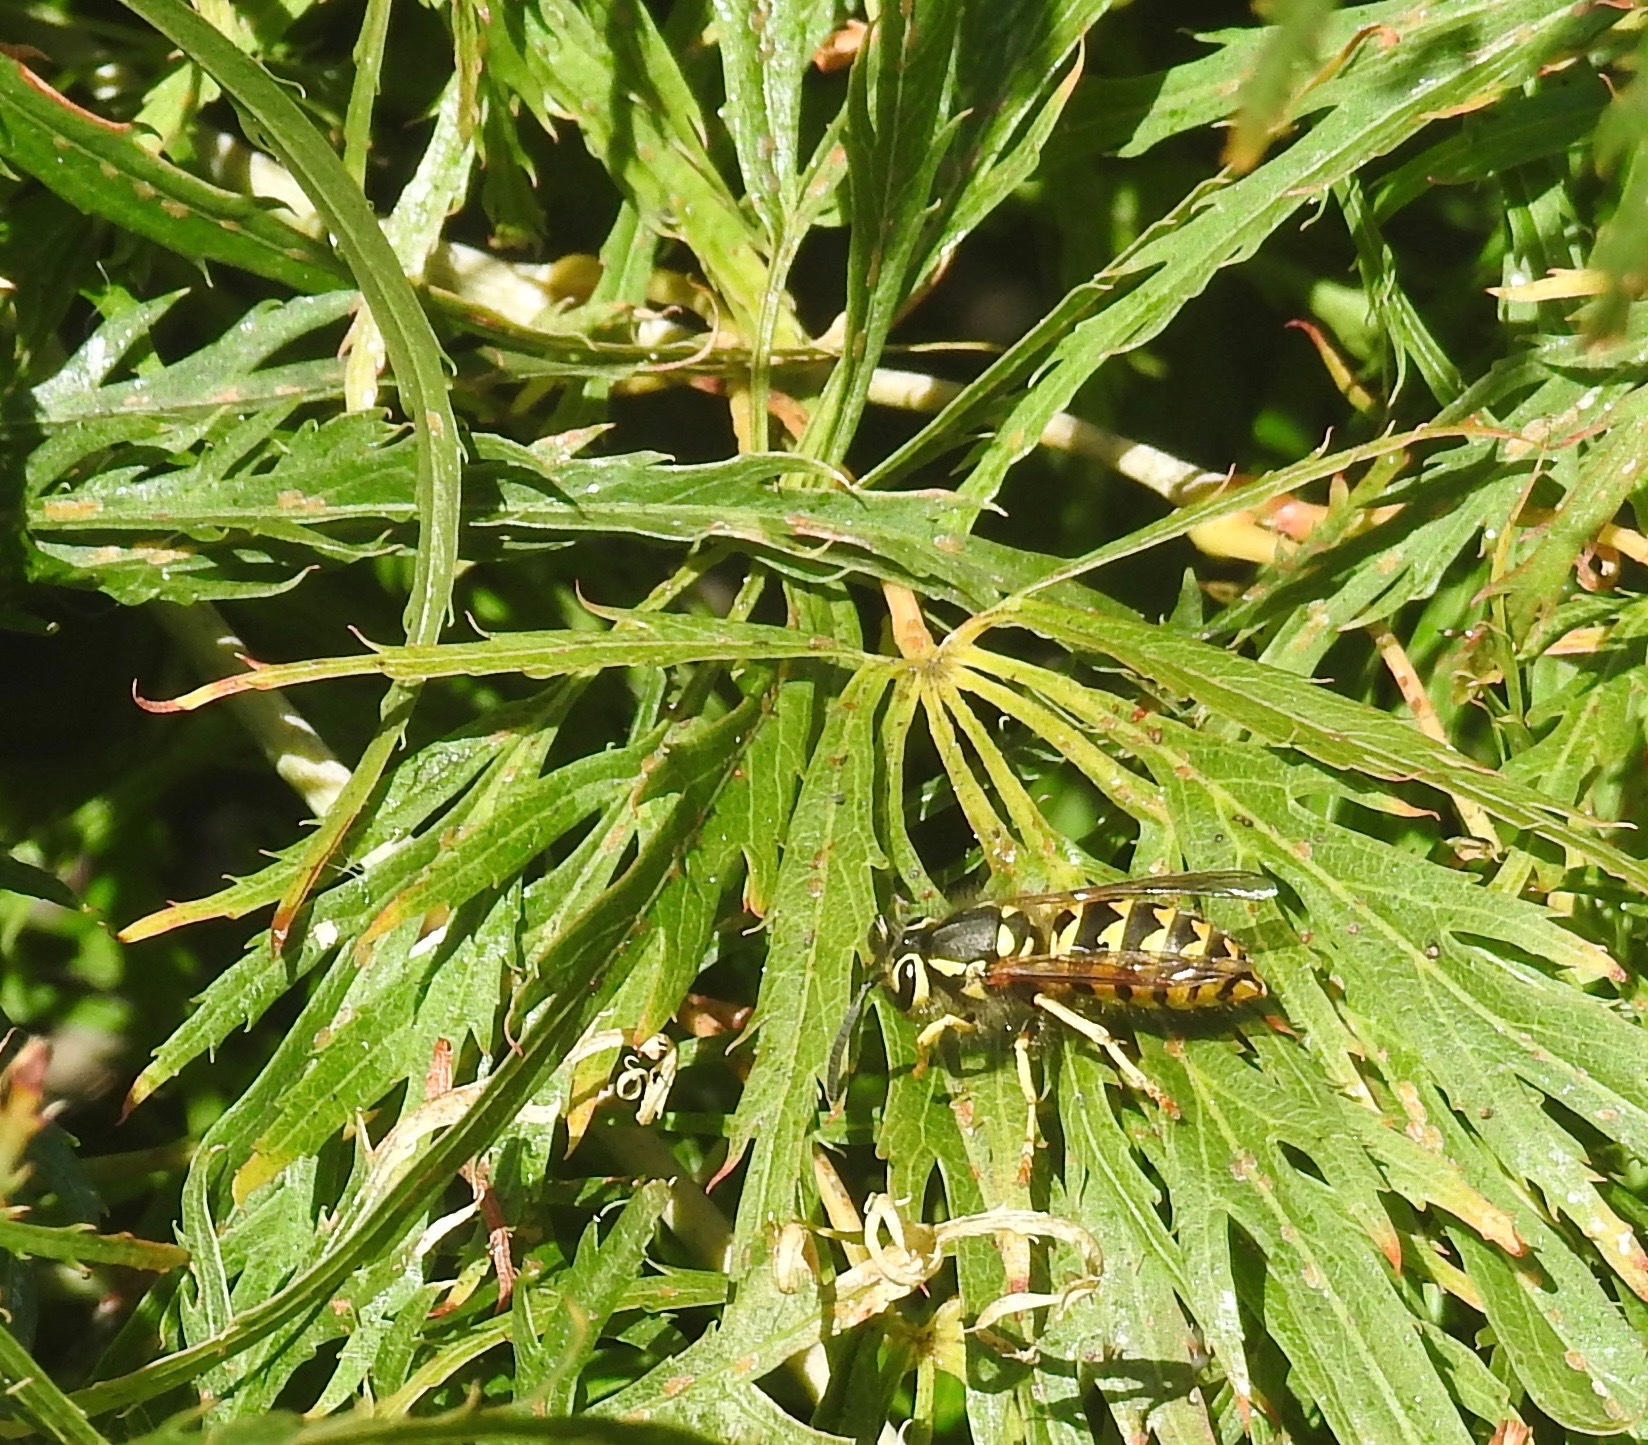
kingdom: Animalia
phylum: Arthropoda
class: Insecta
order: Hymenoptera
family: Vespidae
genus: Vespula
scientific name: Vespula pensylvanica
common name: Western yellowjacket
